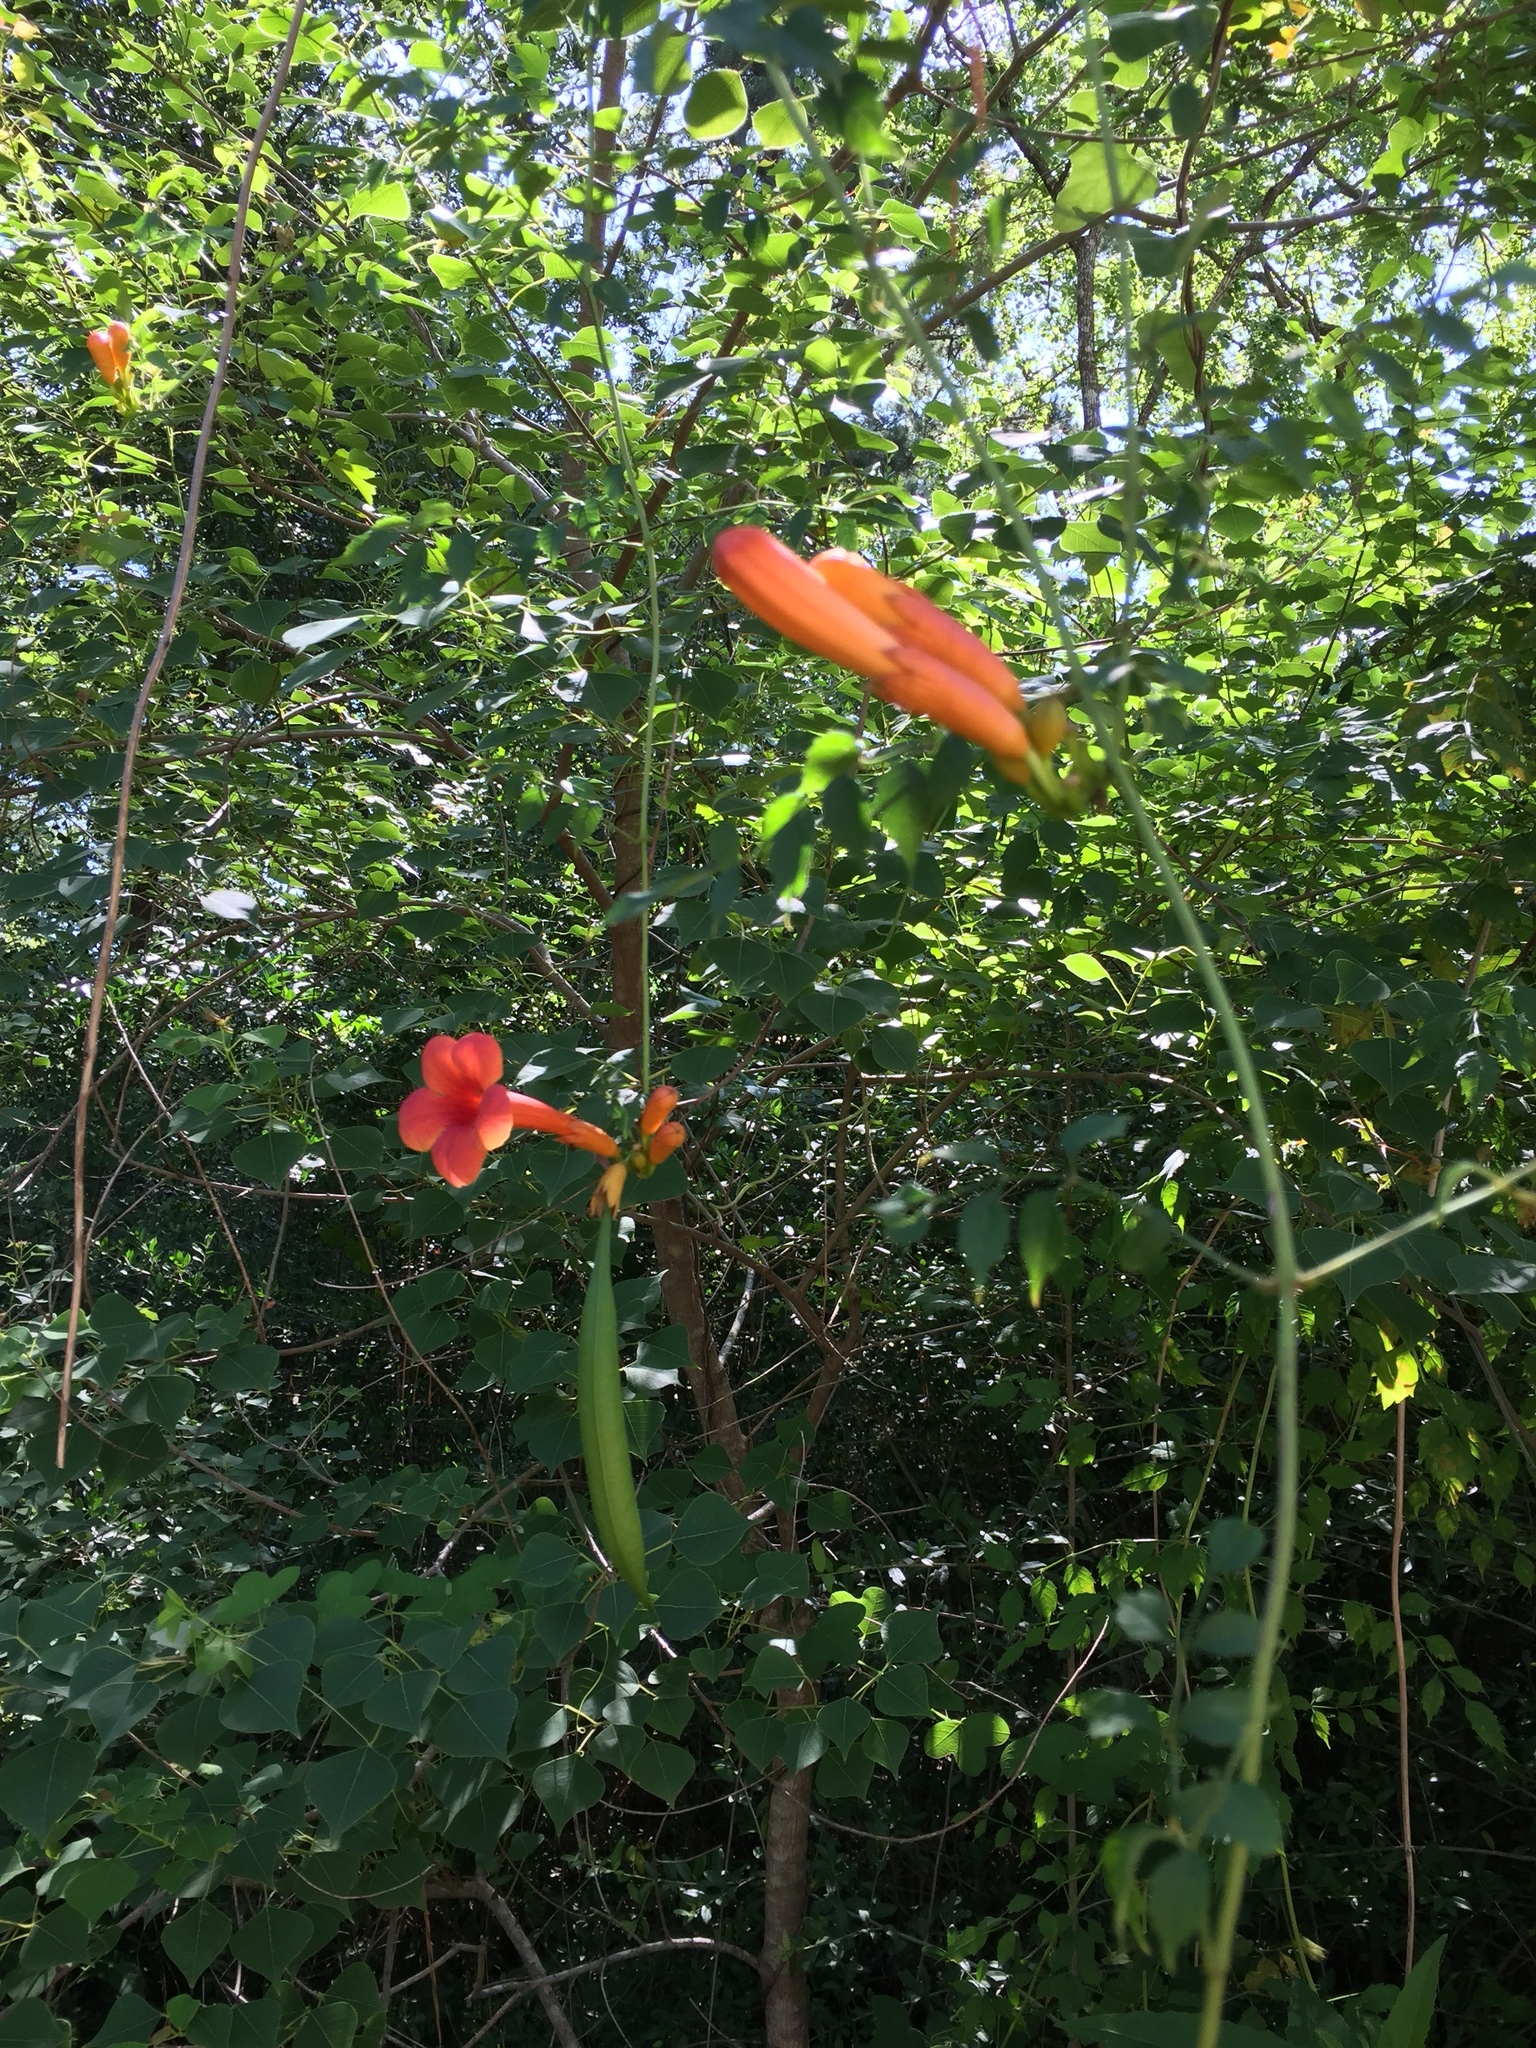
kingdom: Plantae
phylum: Tracheophyta
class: Magnoliopsida
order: Lamiales
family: Bignoniaceae
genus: Campsis
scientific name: Campsis radicans
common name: Trumpet-creeper
